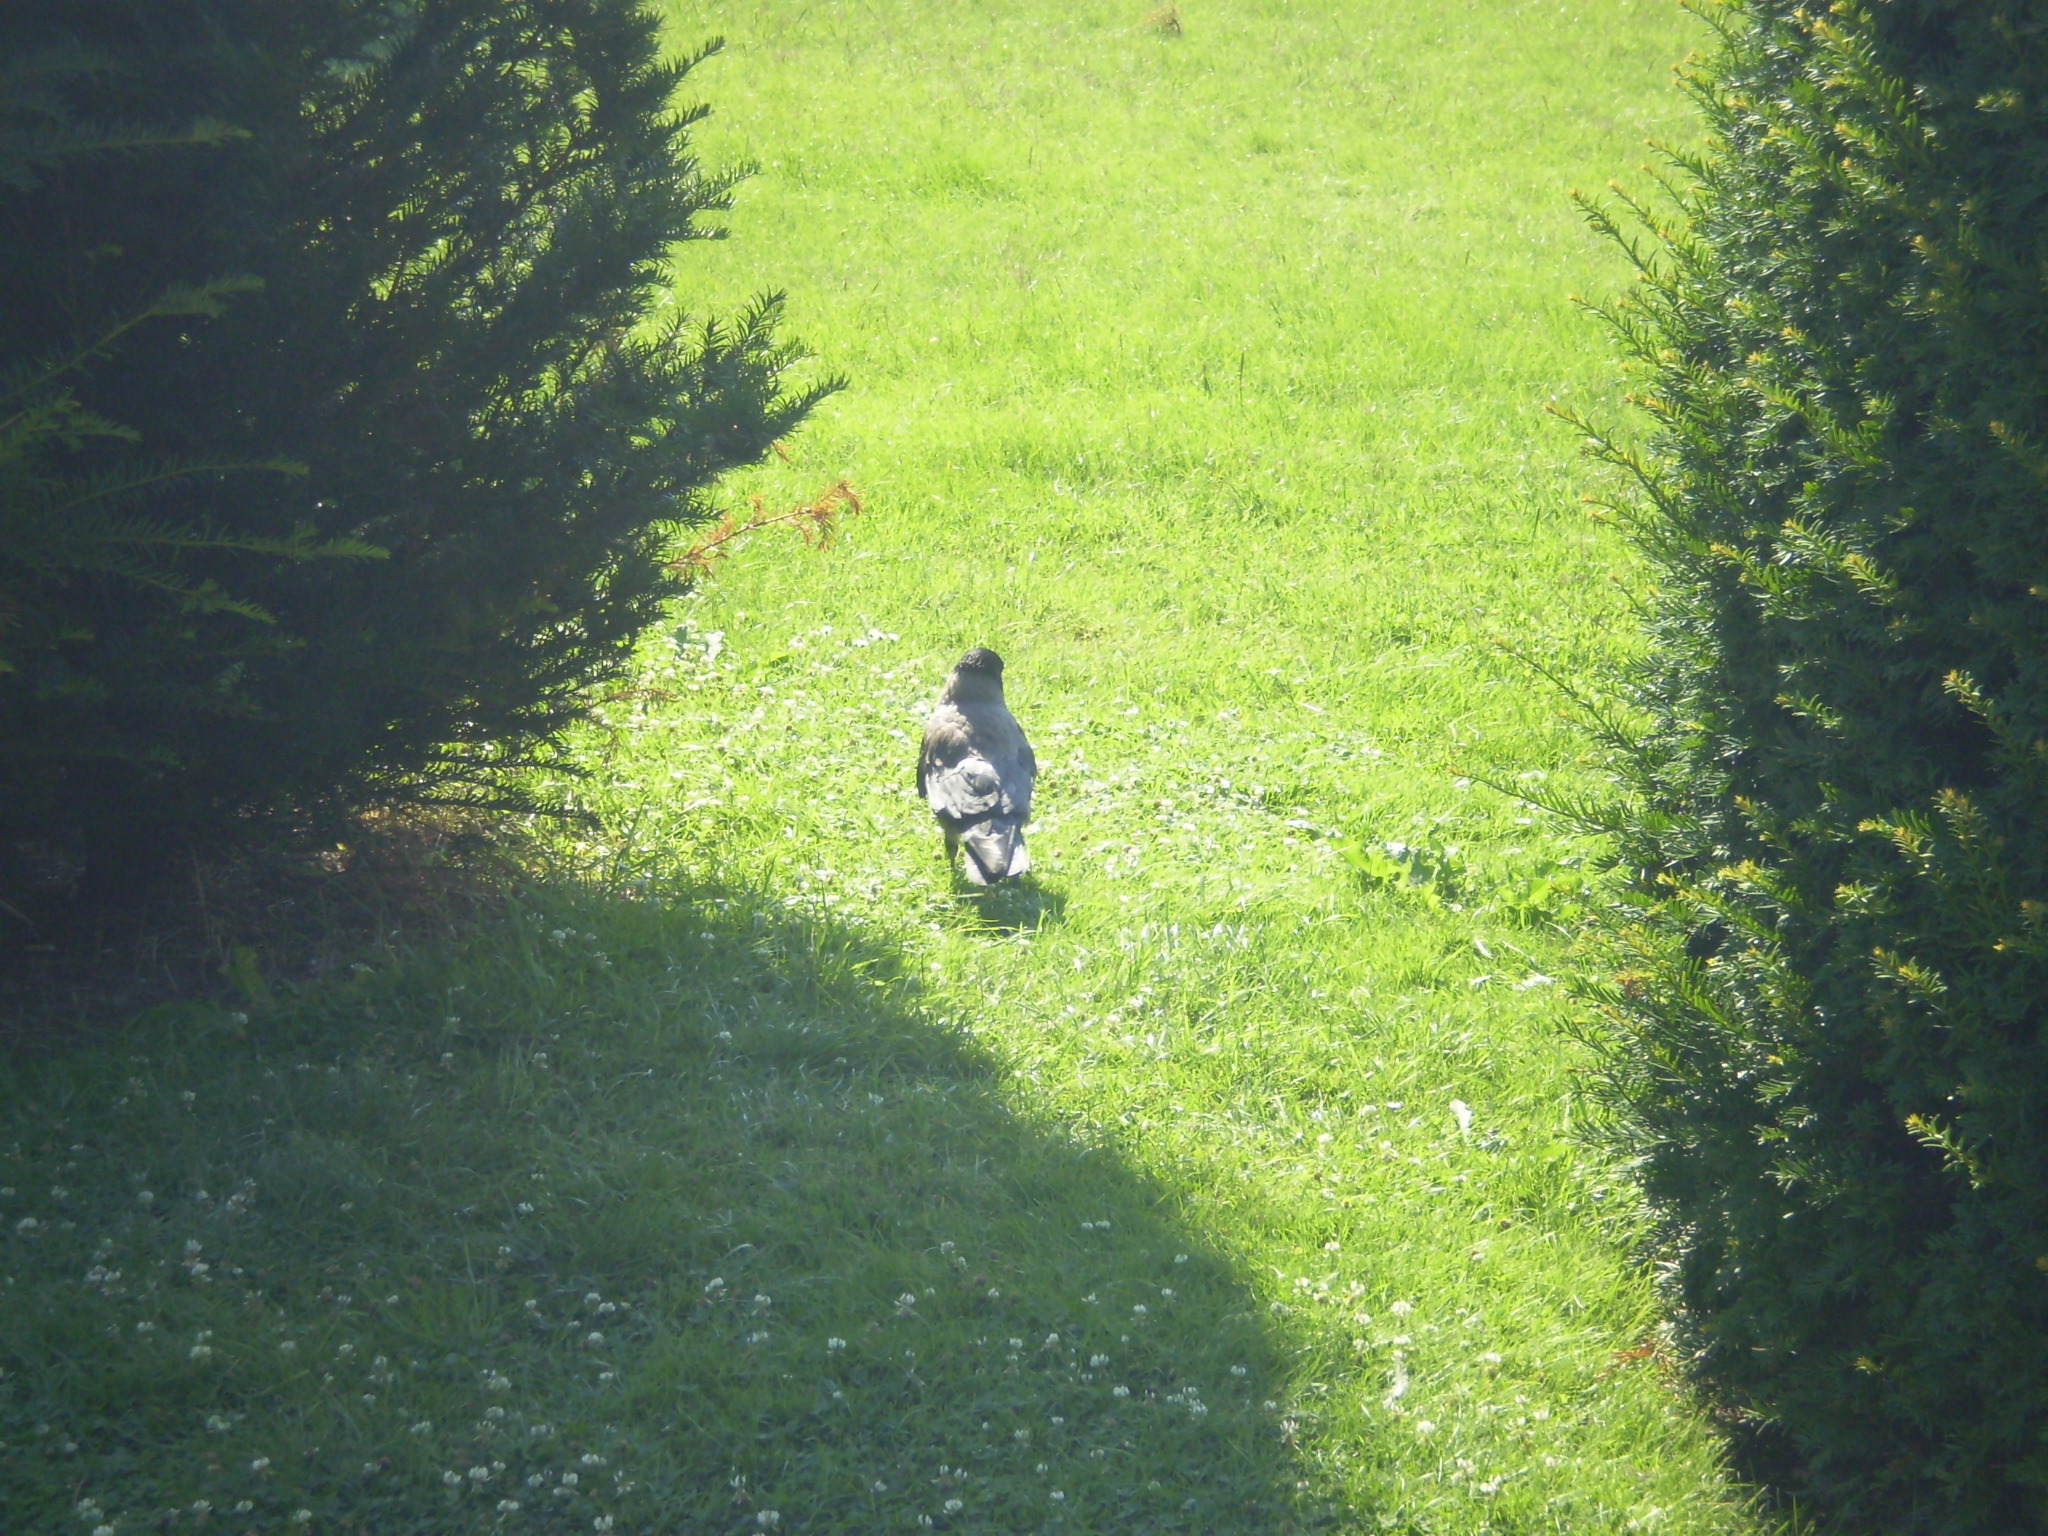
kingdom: Animalia
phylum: Chordata
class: Aves
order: Passeriformes
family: Corvidae
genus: Corvus
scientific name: Corvus cornix
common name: Hooded crow
